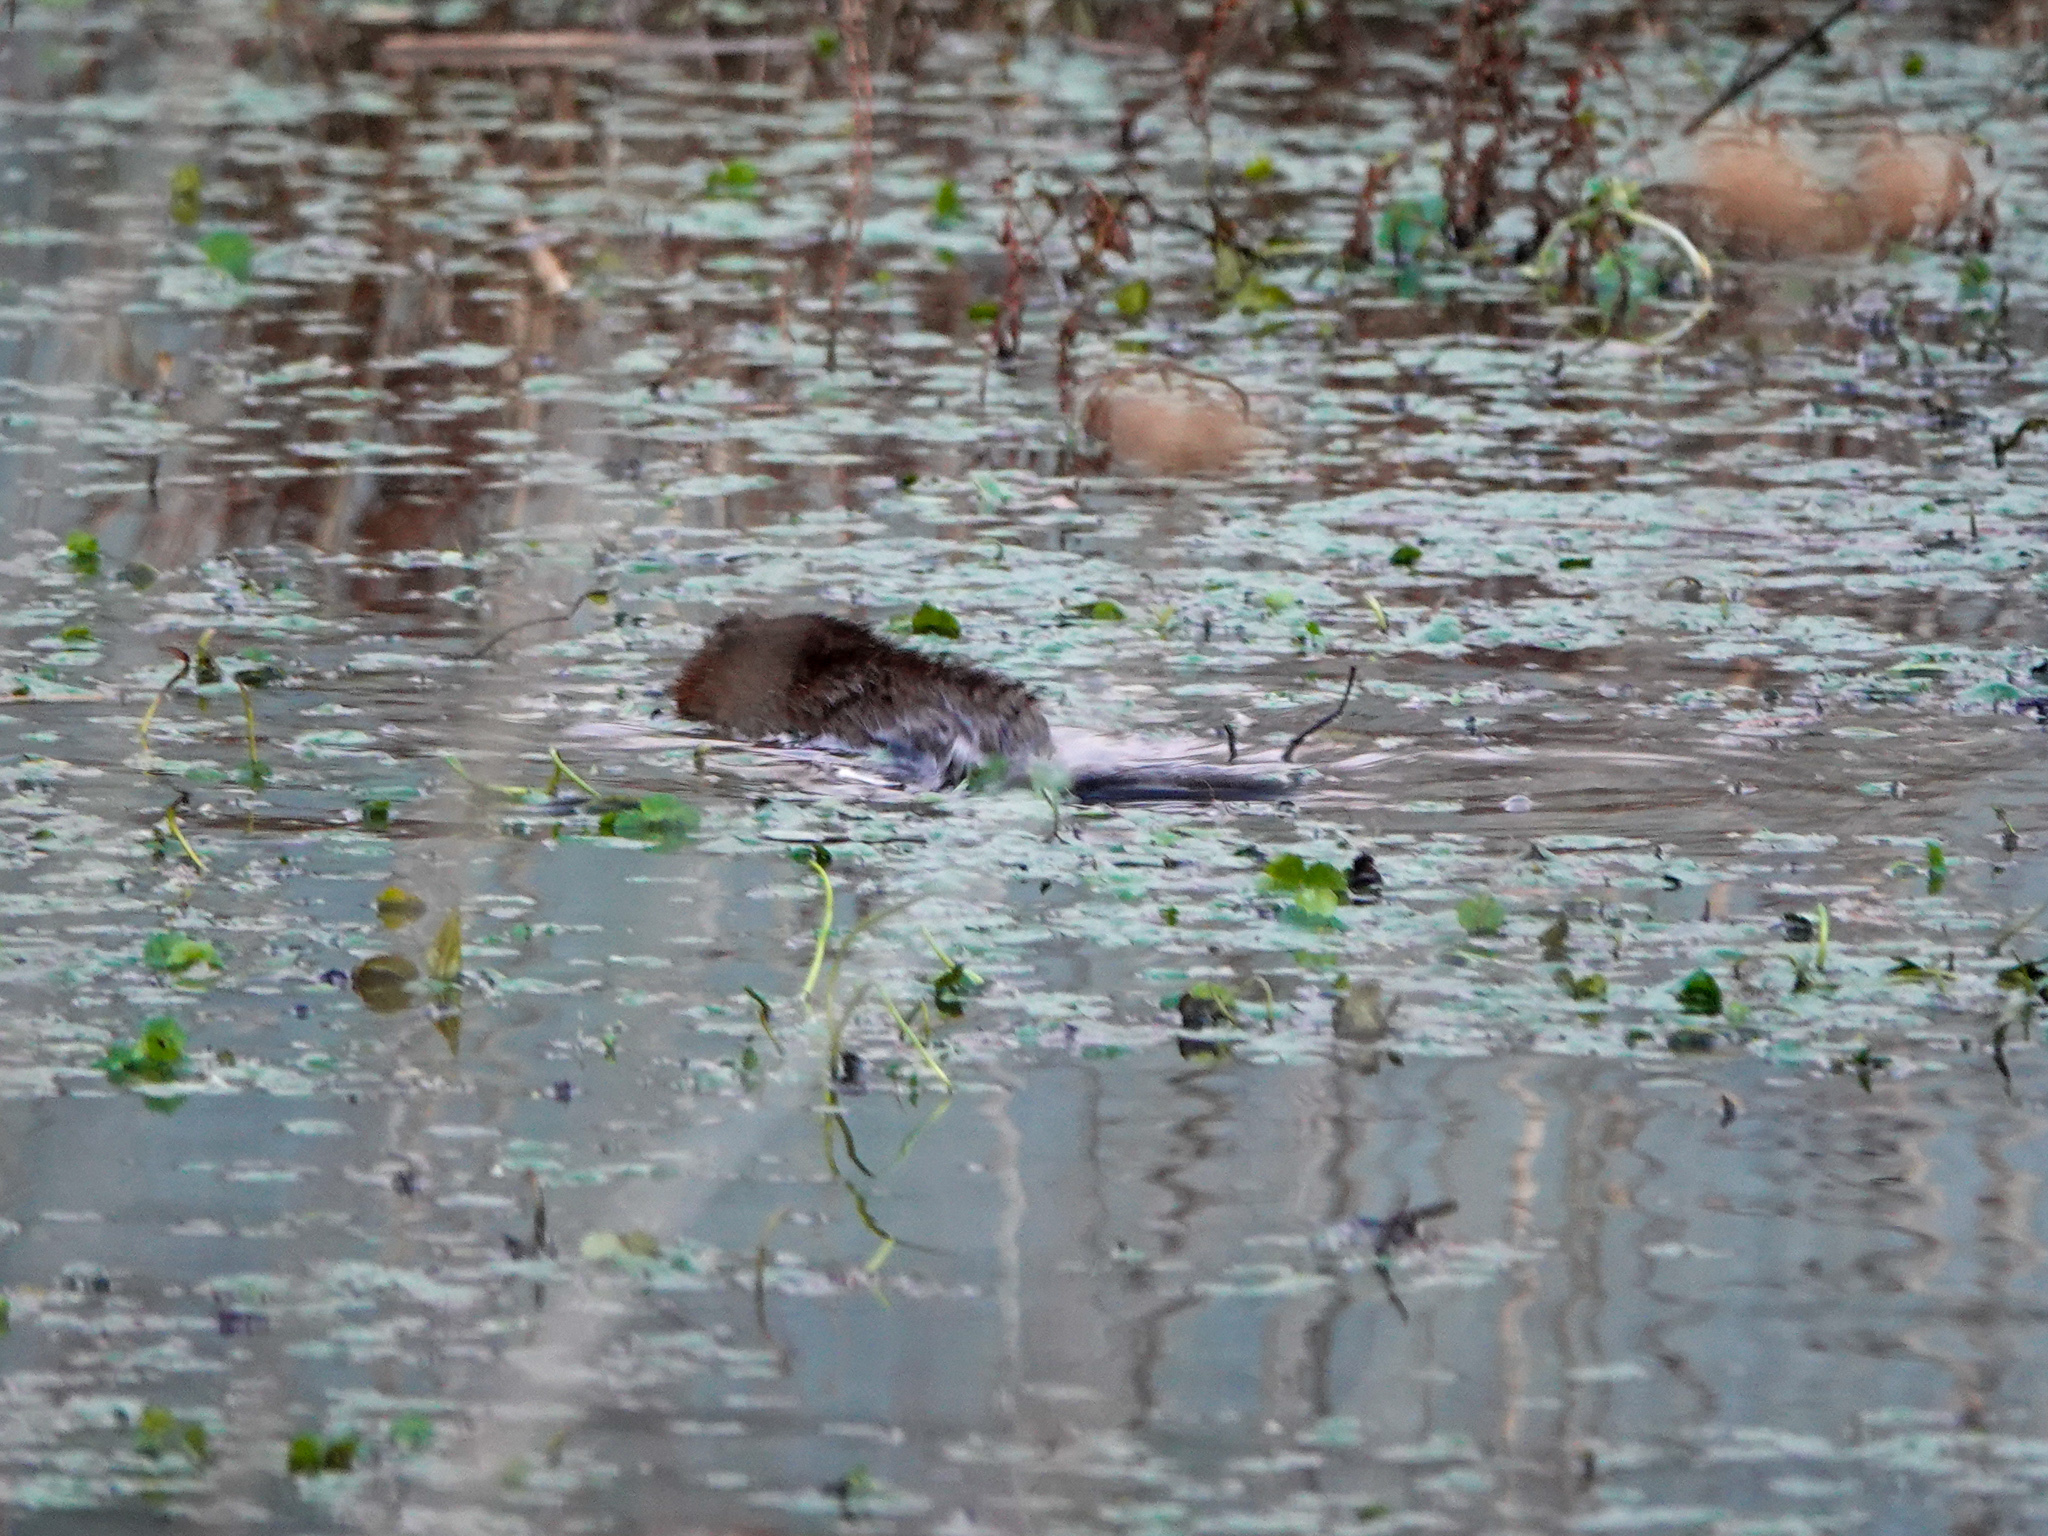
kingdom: Animalia
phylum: Chordata
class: Mammalia
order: Rodentia
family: Cricetidae
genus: Ondatra
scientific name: Ondatra zibethicus
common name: Muskrat
